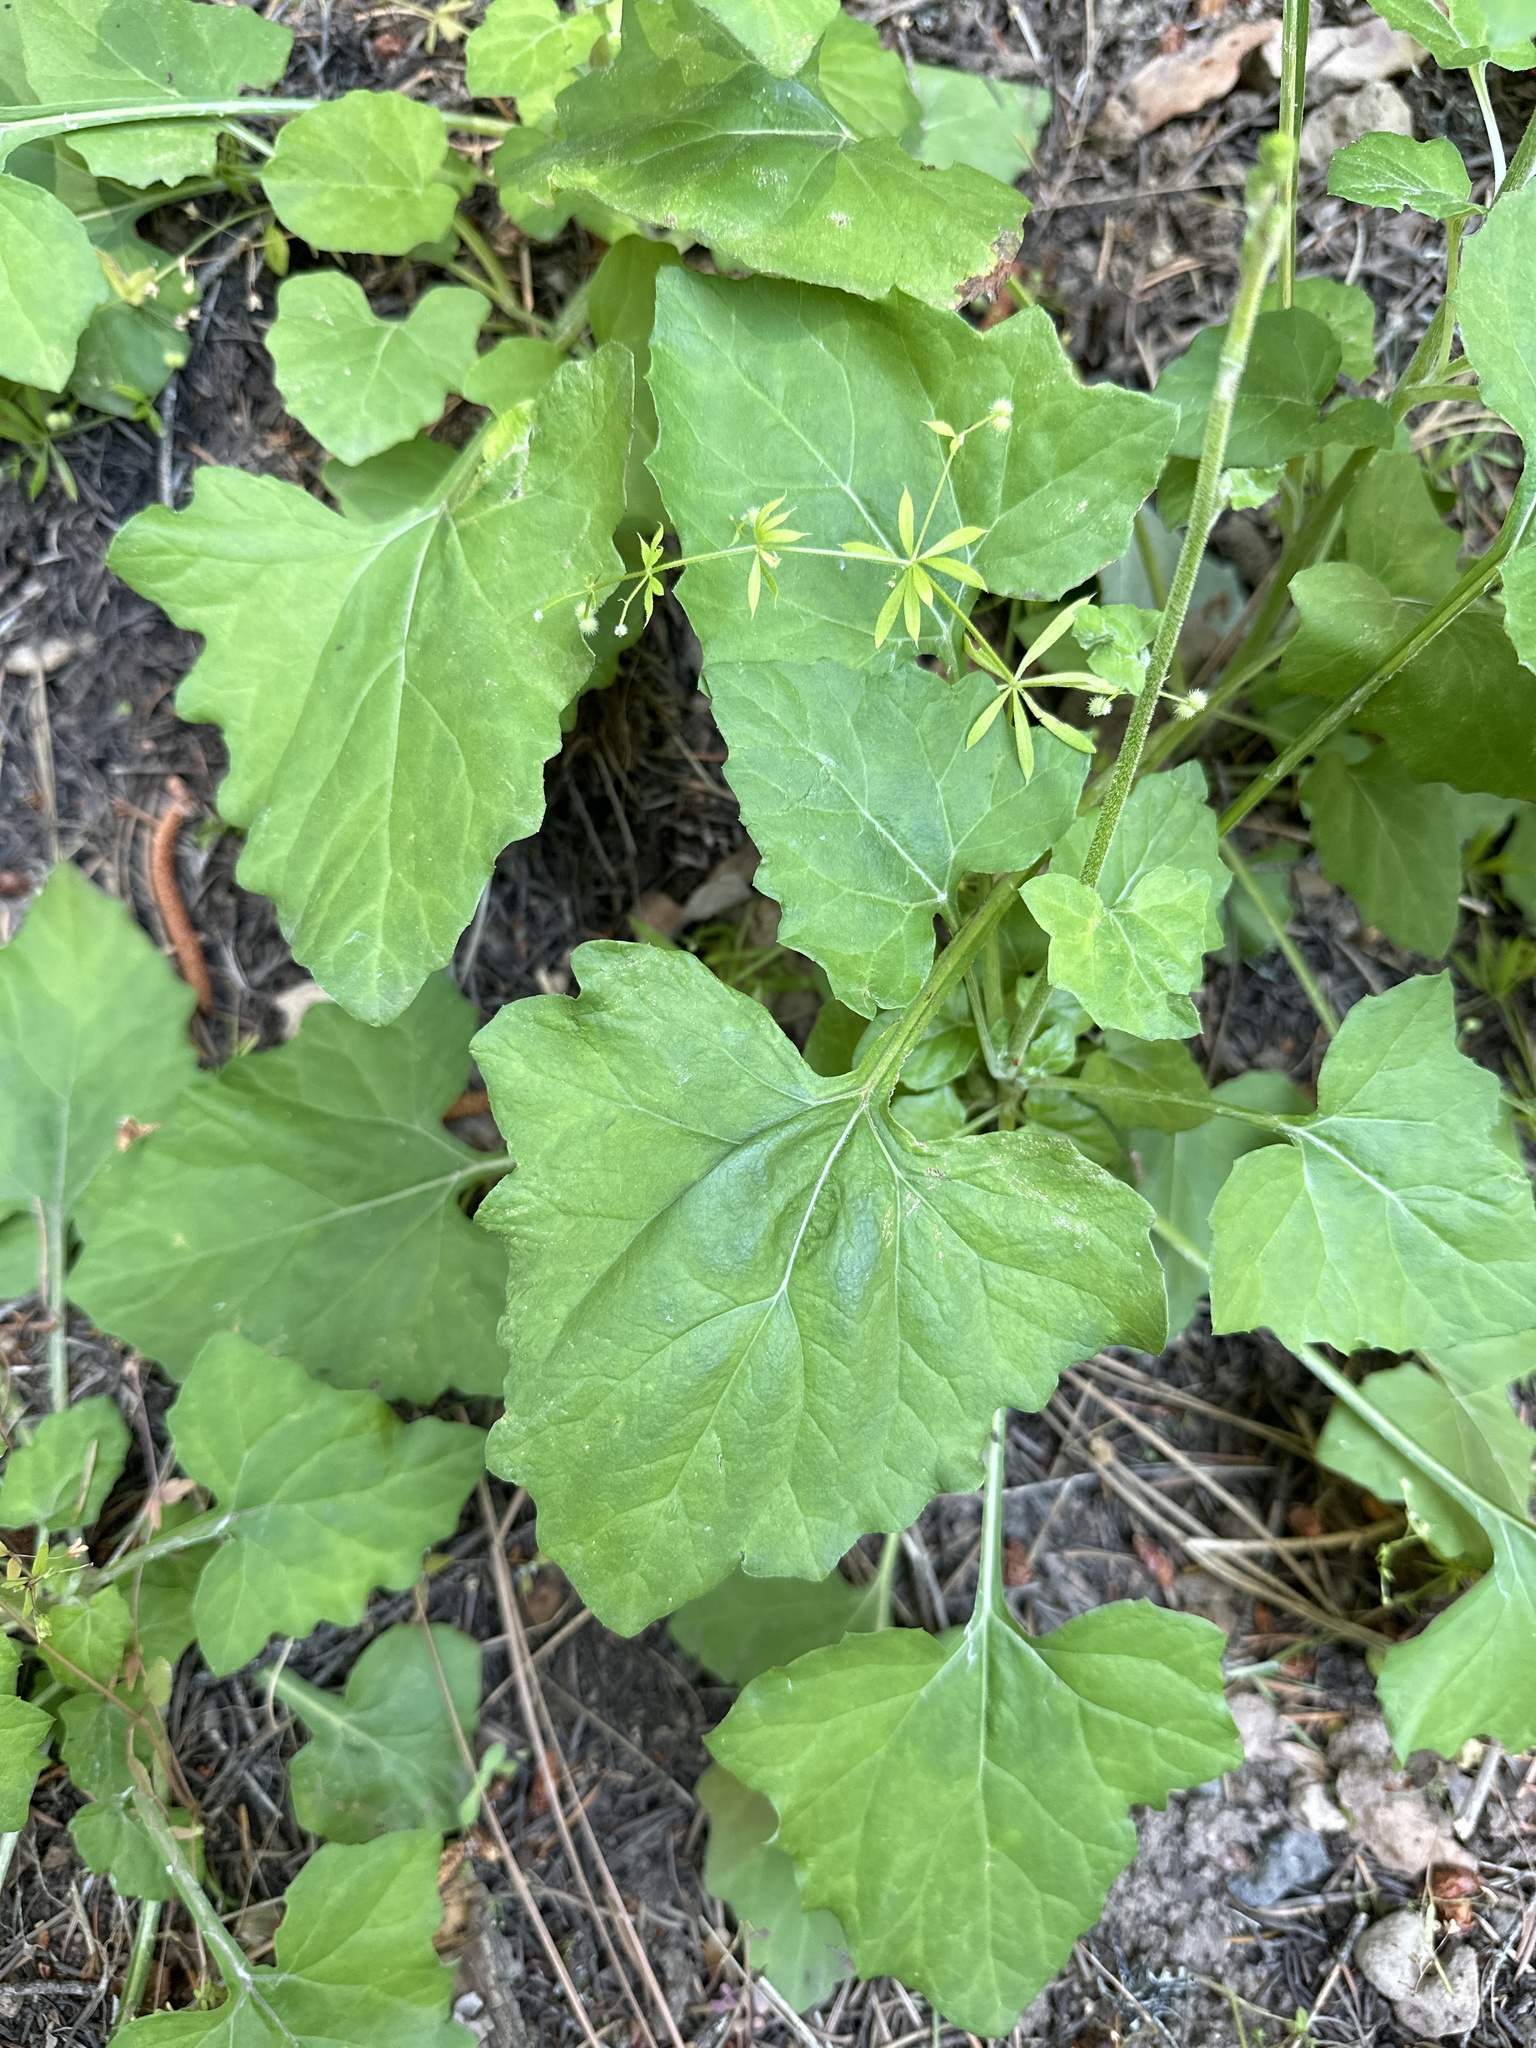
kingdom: Plantae
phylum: Tracheophyta
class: Magnoliopsida
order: Asterales
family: Asteraceae
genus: Adenocaulon
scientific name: Adenocaulon bicolor
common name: Trailplant
